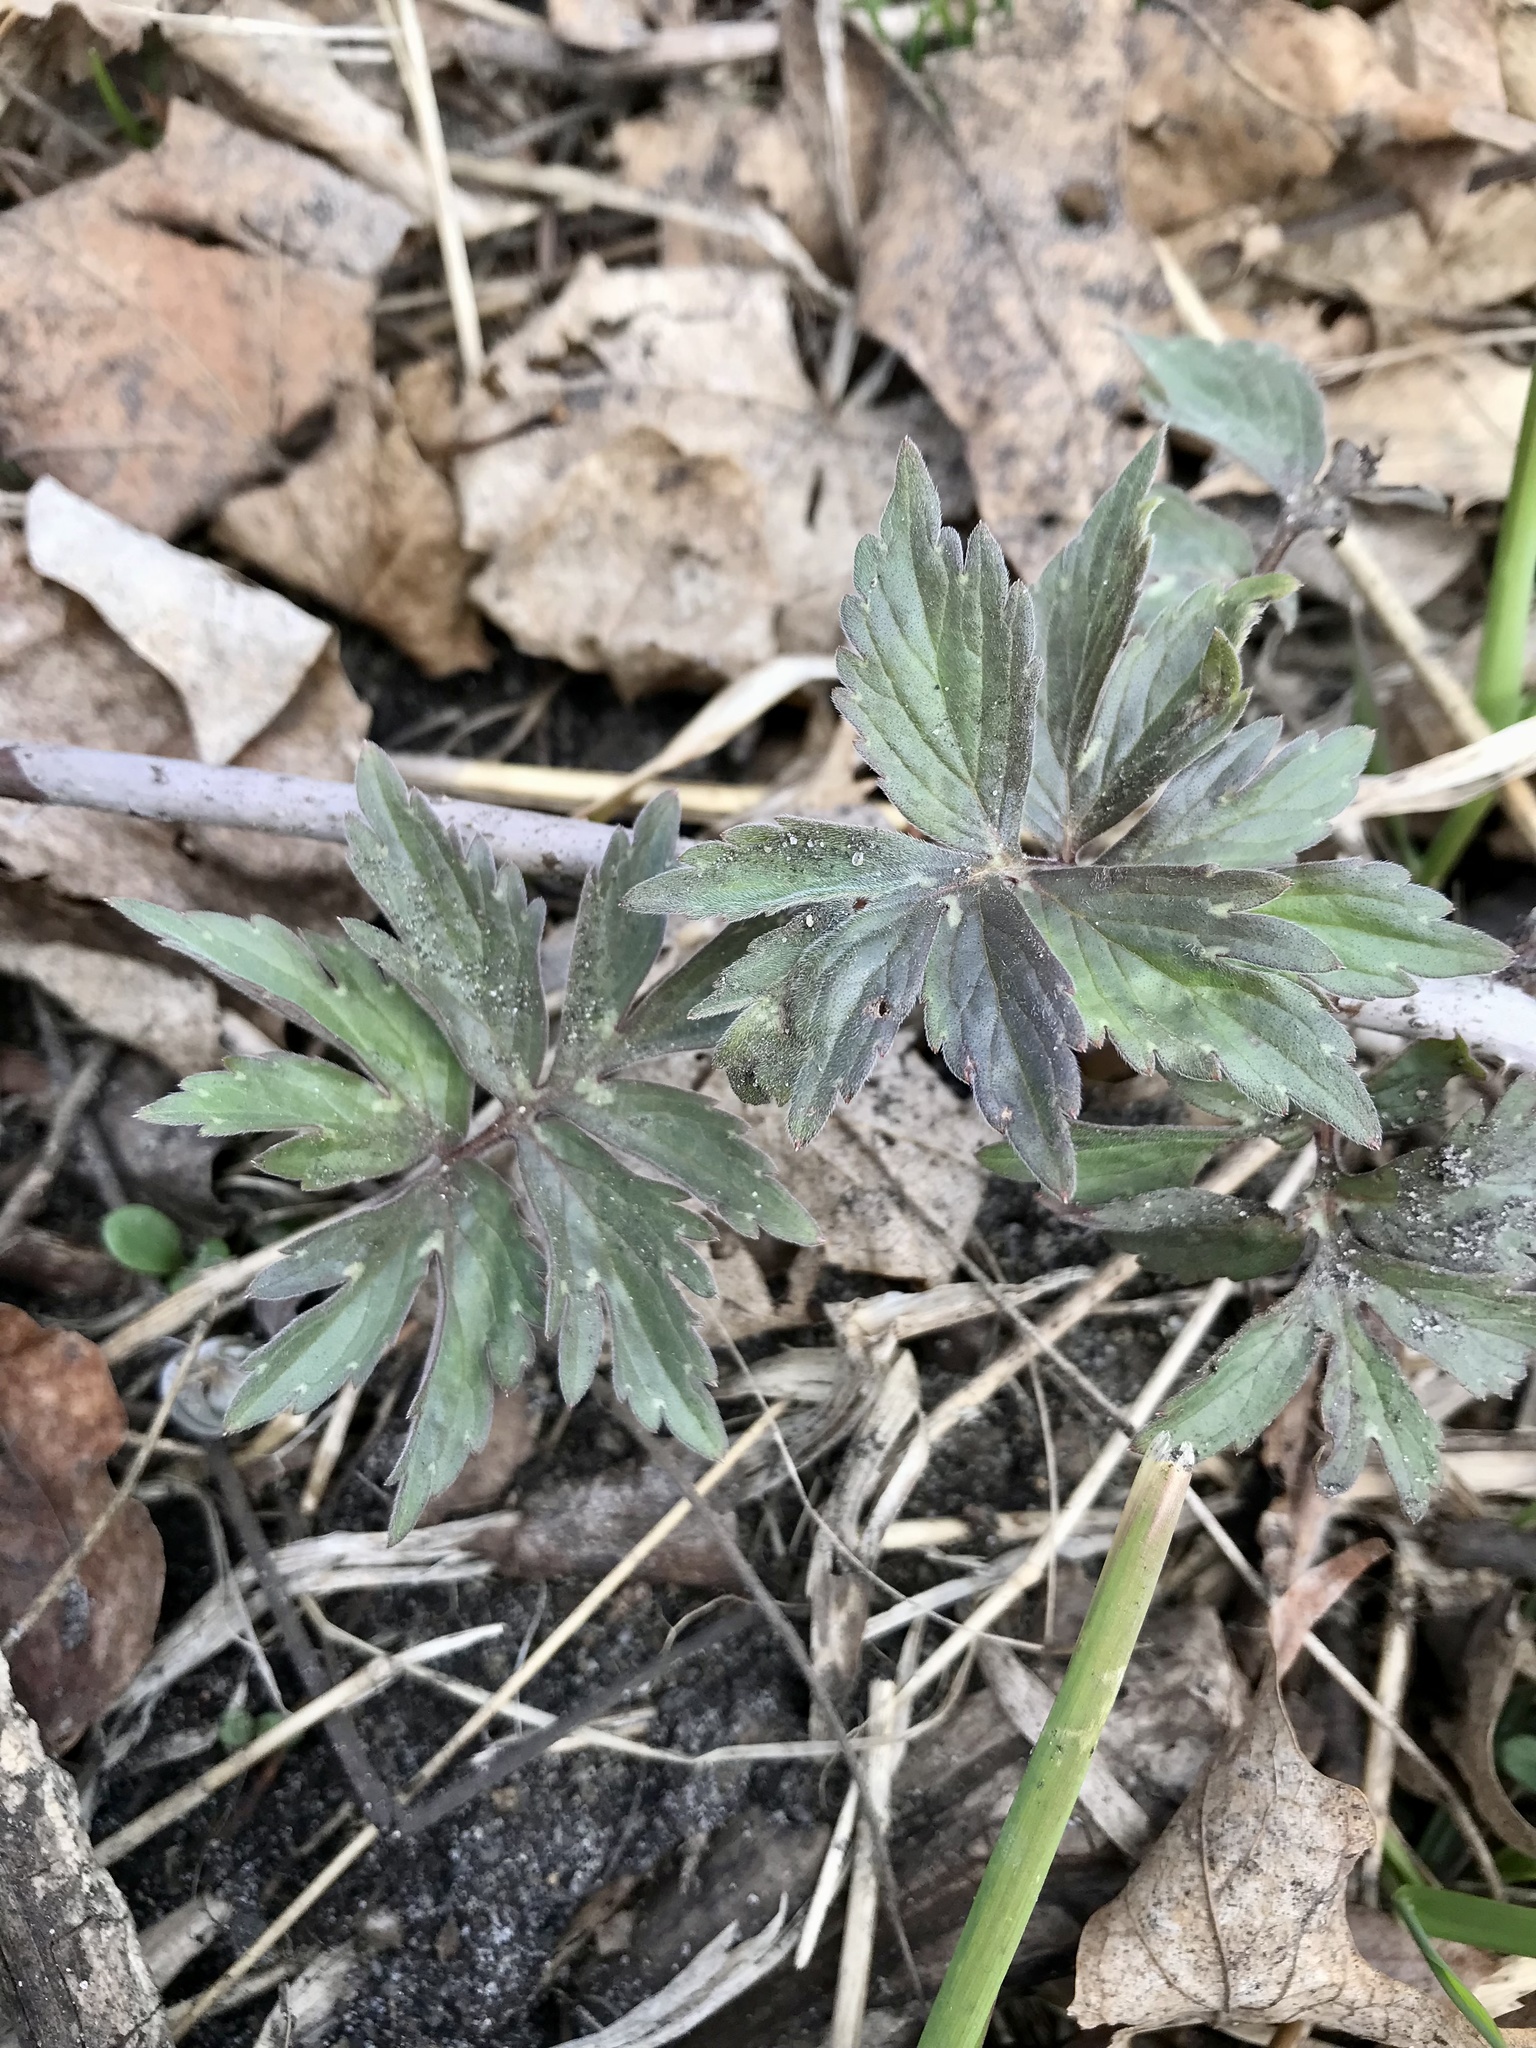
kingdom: Plantae
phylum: Tracheophyta
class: Magnoliopsida
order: Boraginales
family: Hydrophyllaceae
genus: Hydrophyllum
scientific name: Hydrophyllum virginianum
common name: Virginia waterleaf
